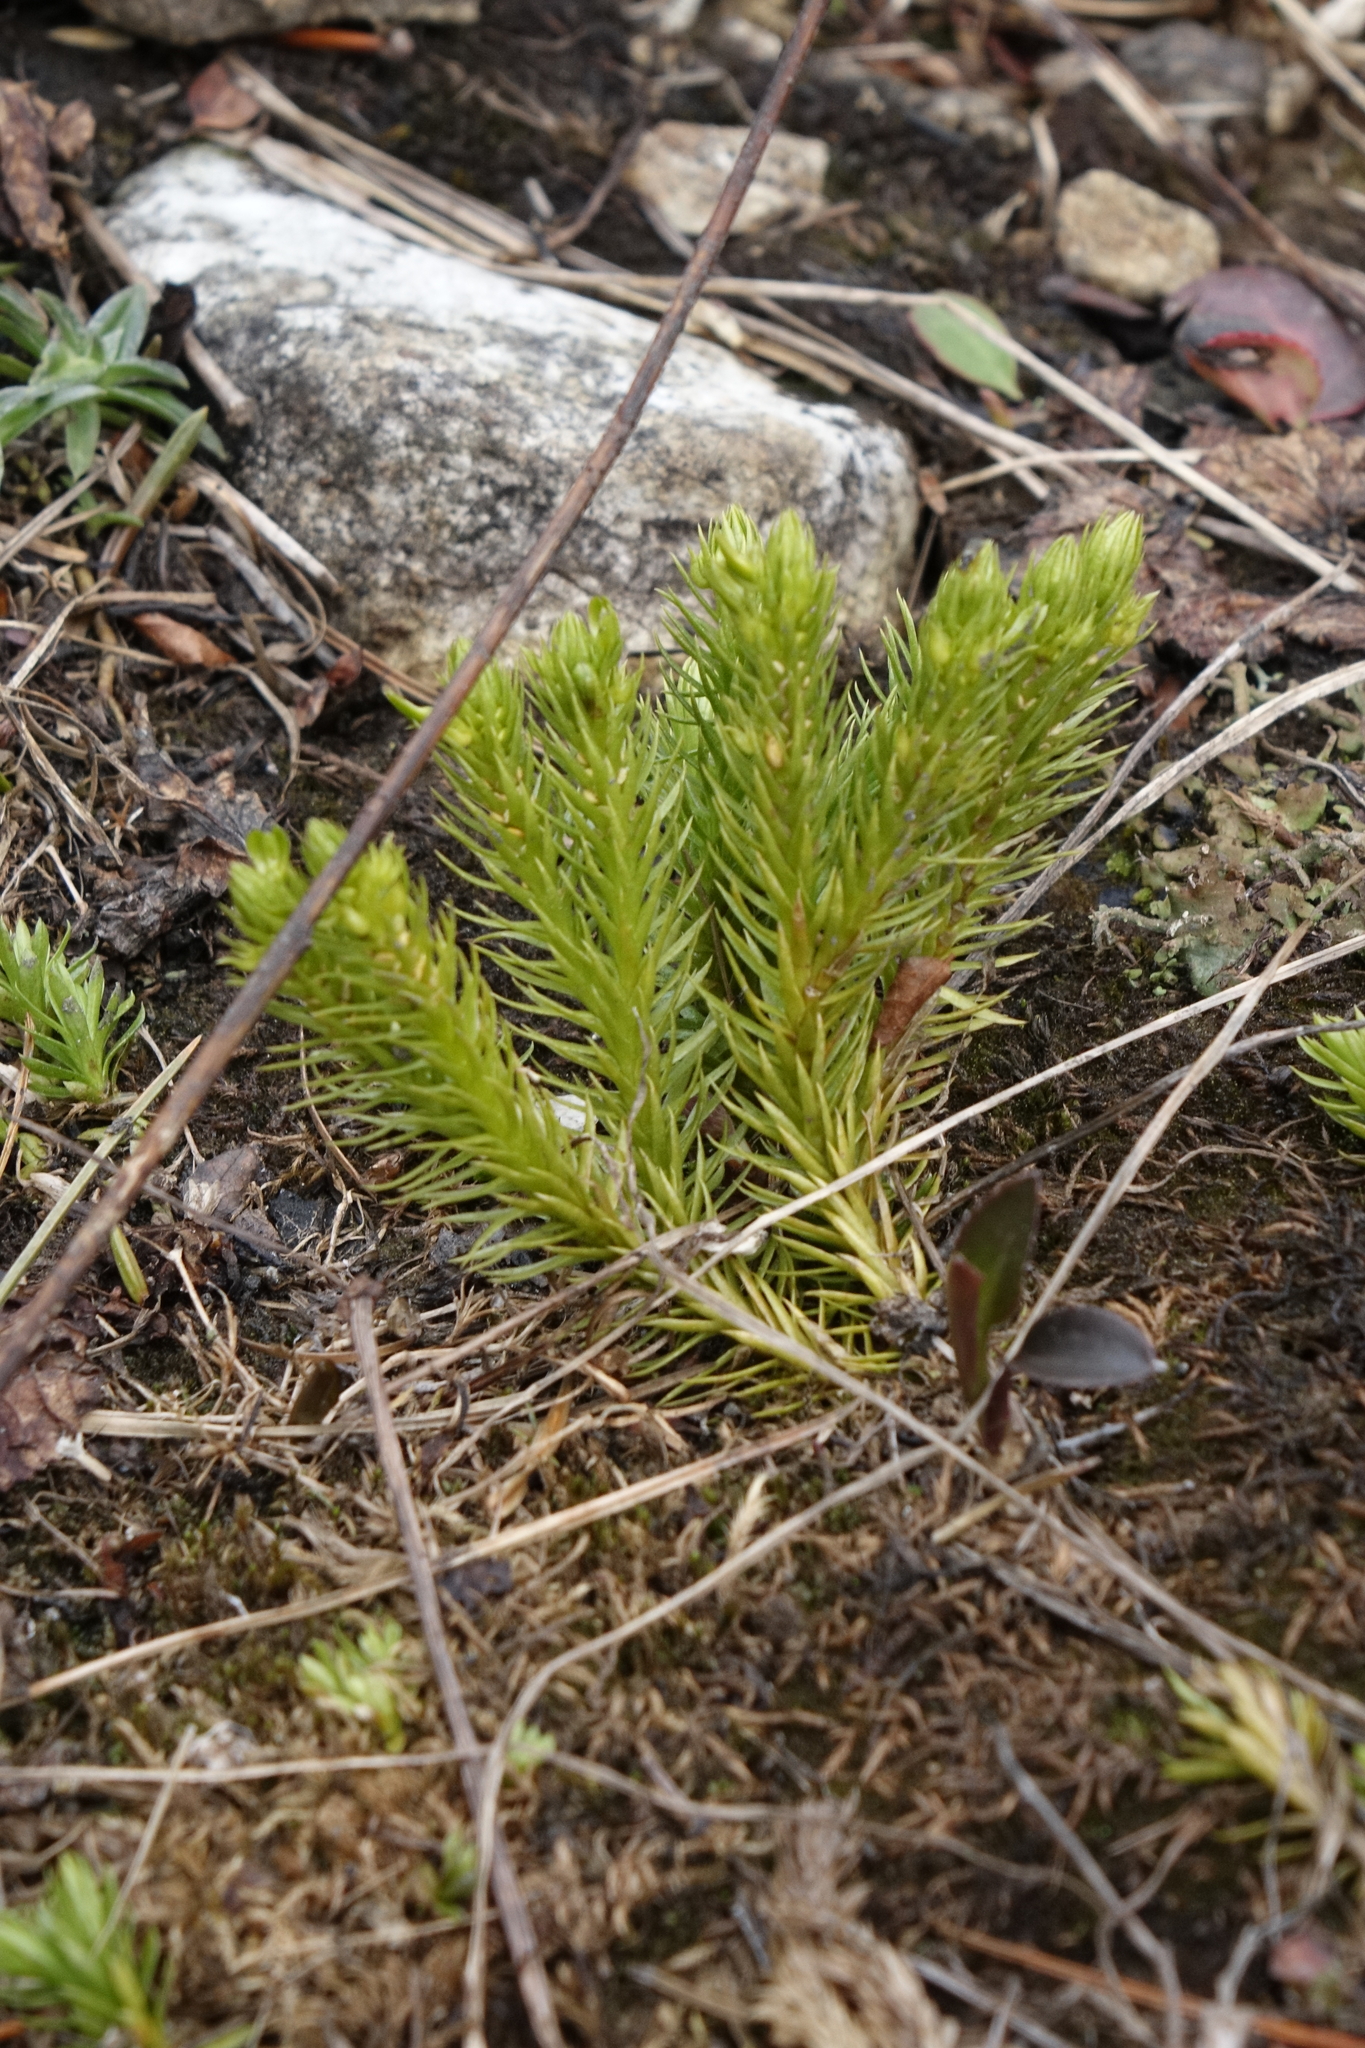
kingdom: Plantae
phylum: Tracheophyta
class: Lycopodiopsida
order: Lycopodiales
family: Lycopodiaceae
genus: Huperzia
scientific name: Huperzia selago
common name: Northern firmoss
